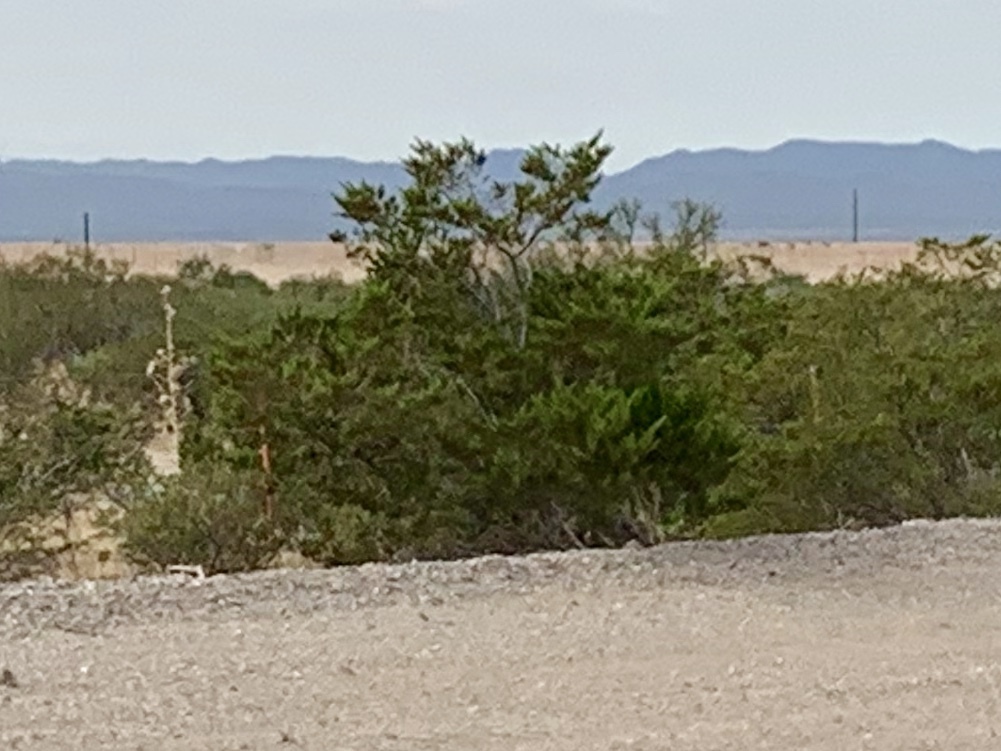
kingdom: Plantae
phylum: Tracheophyta
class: Magnoliopsida
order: Zygophyllales
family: Zygophyllaceae
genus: Larrea
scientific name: Larrea tridentata
